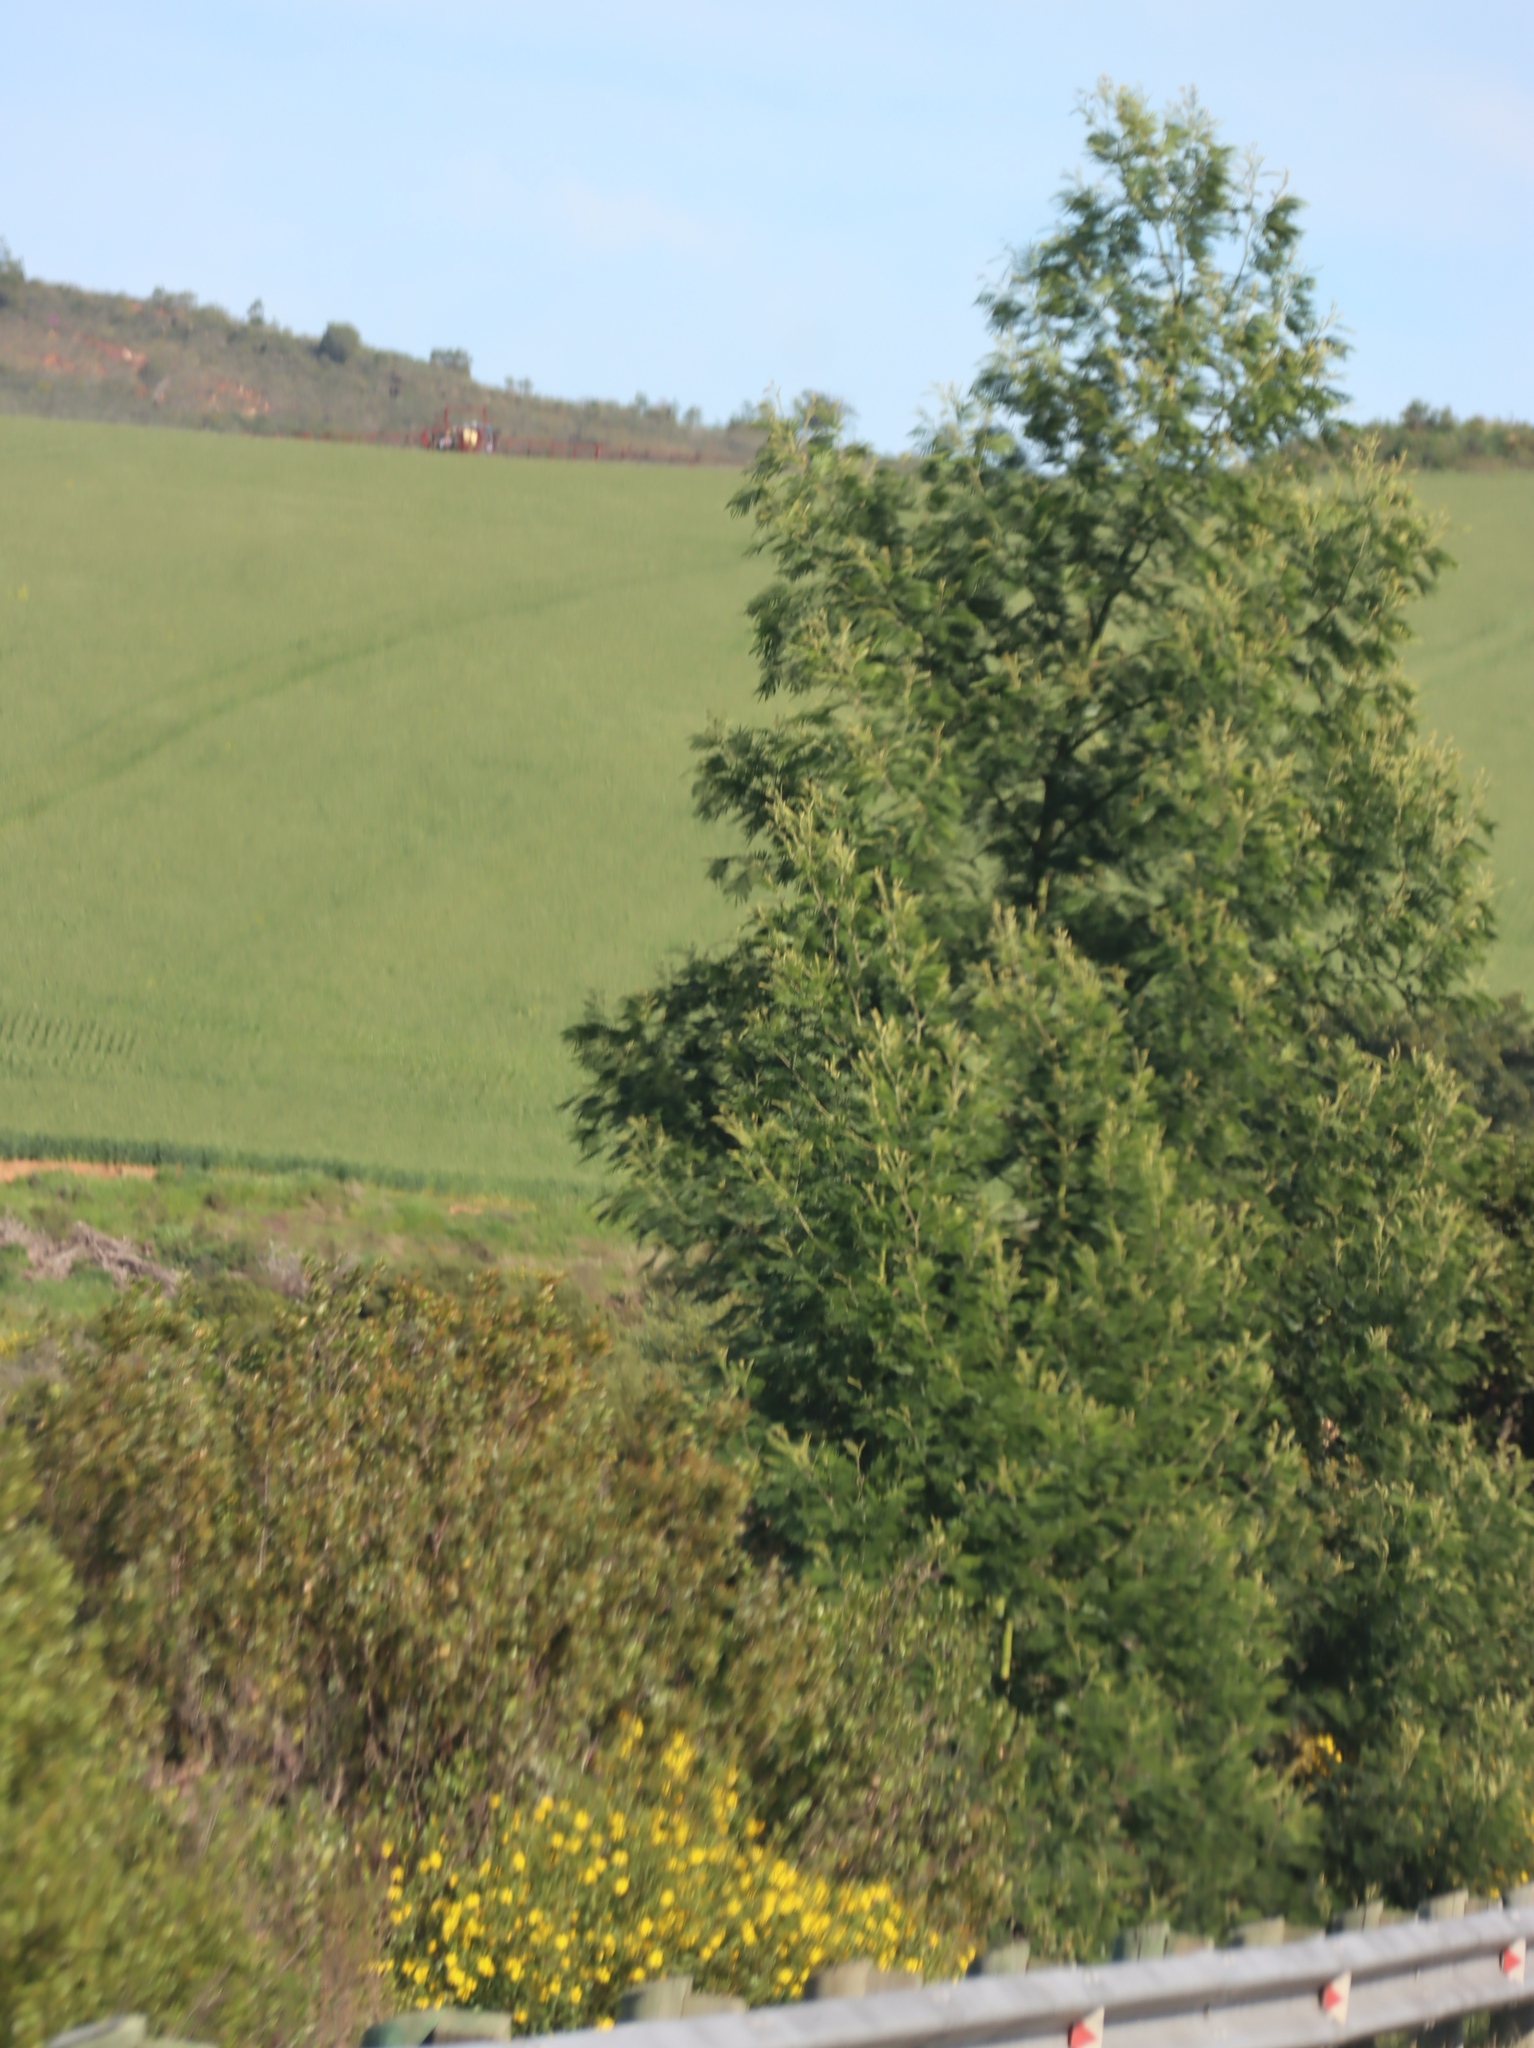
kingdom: Plantae
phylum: Tracheophyta
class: Magnoliopsida
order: Fabales
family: Fabaceae
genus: Acacia
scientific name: Acacia mearnsii
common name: Black wattle
